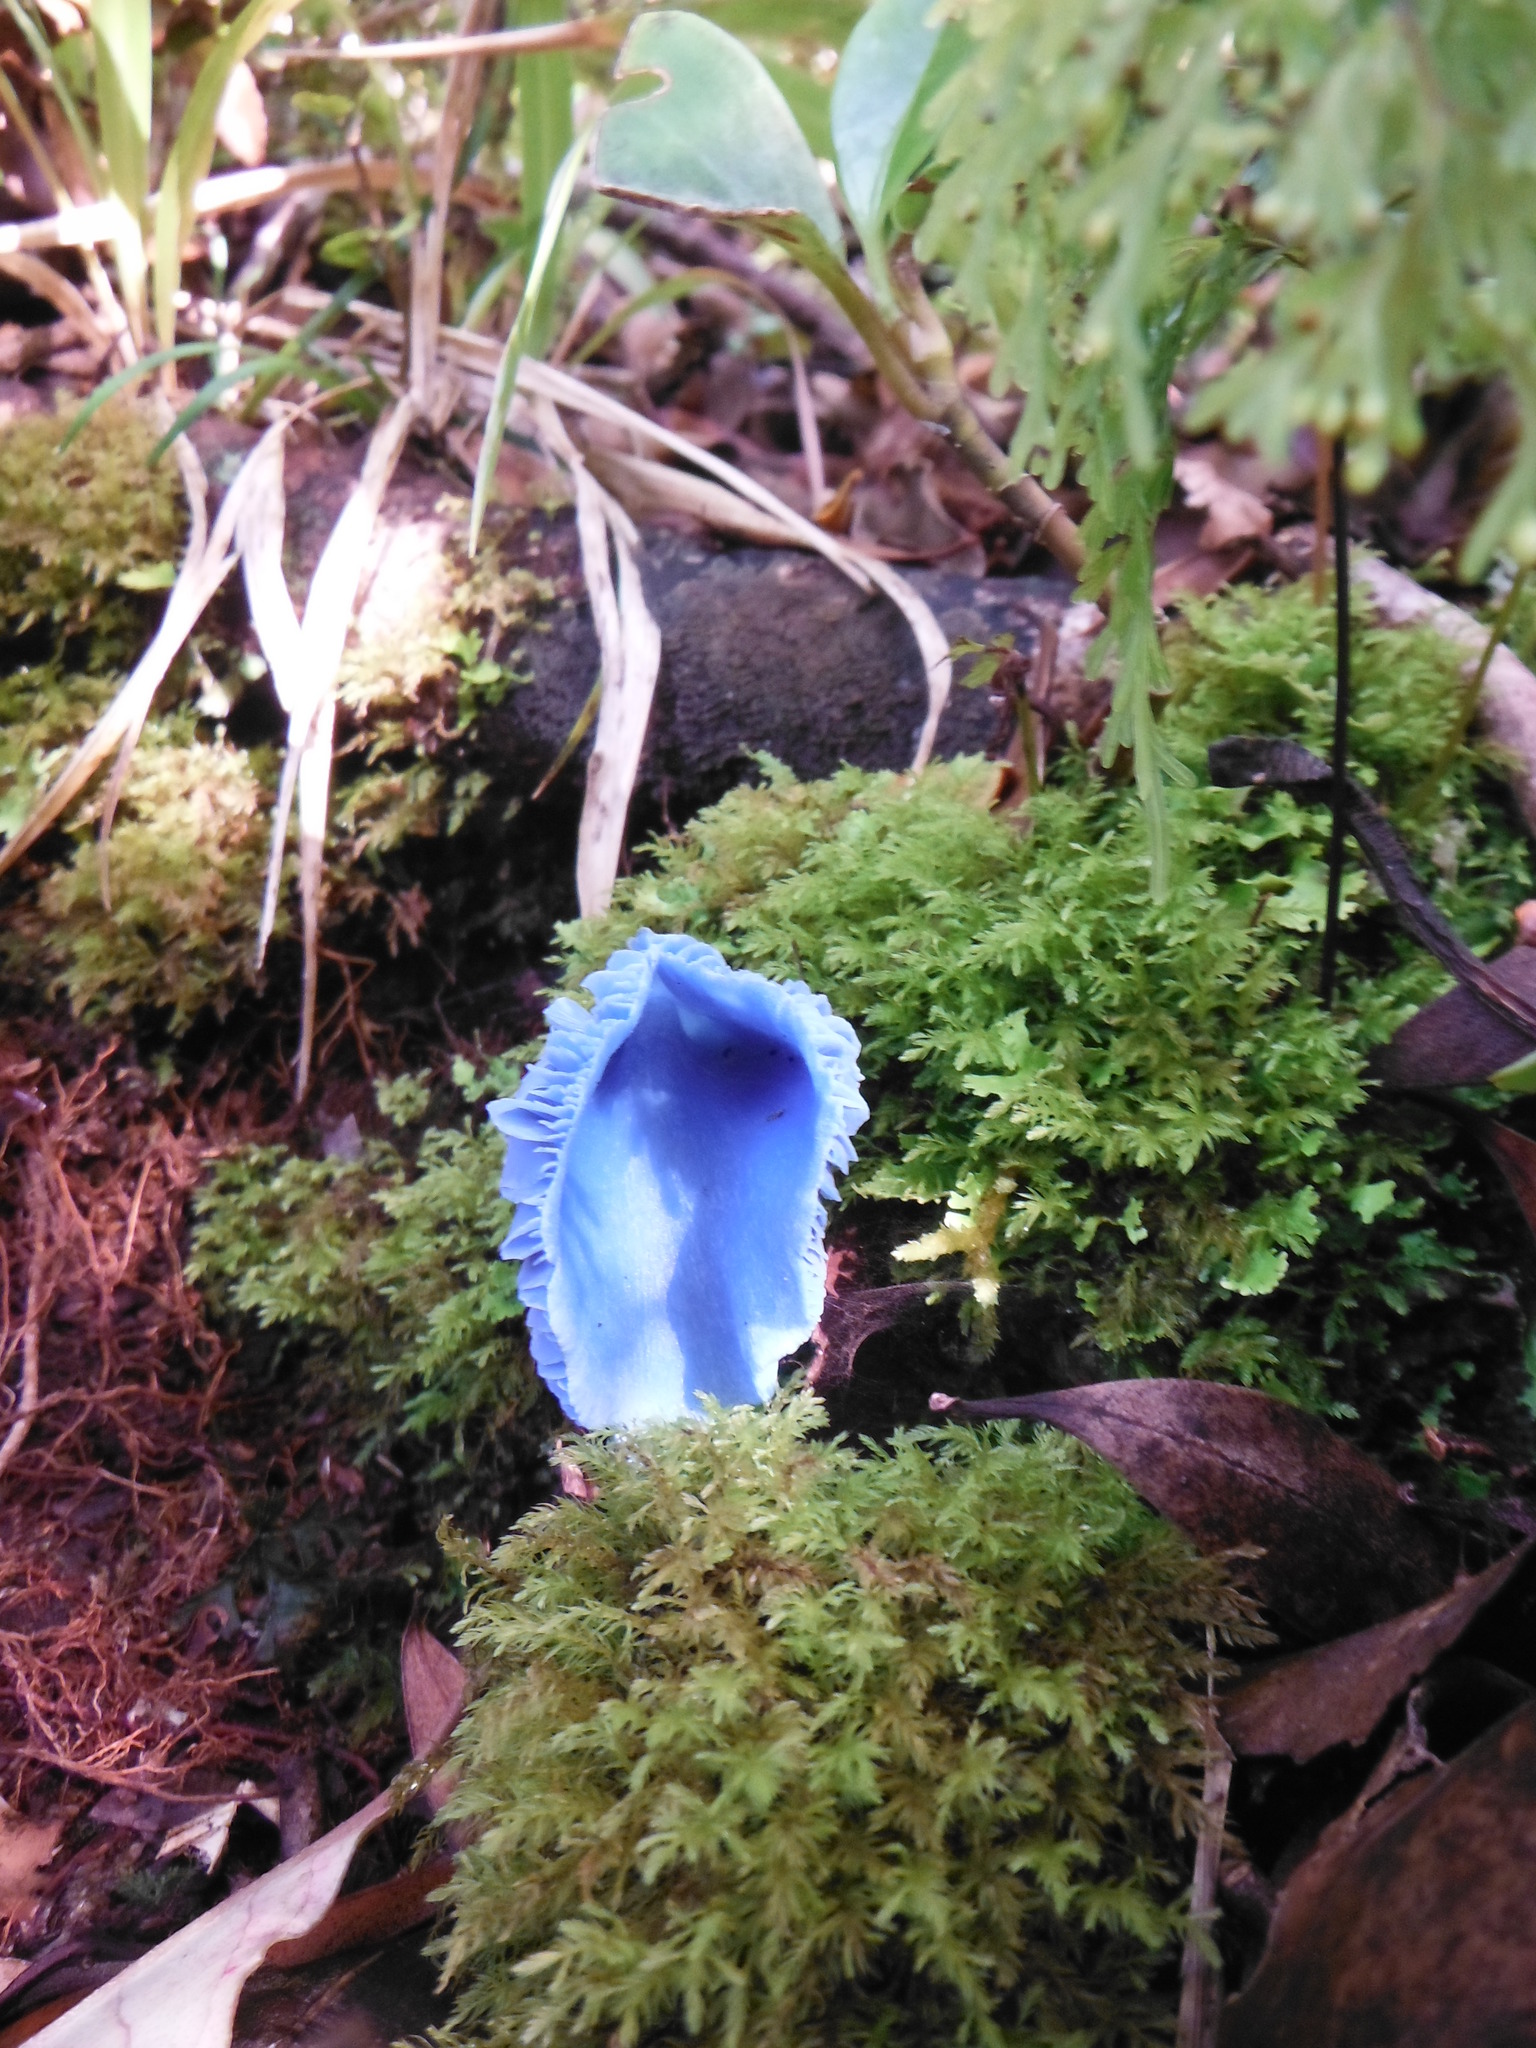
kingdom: Fungi
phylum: Basidiomycota
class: Agaricomycetes
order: Agaricales
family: Entolomataceae
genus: Entoloma
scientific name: Entoloma hochstetteri
